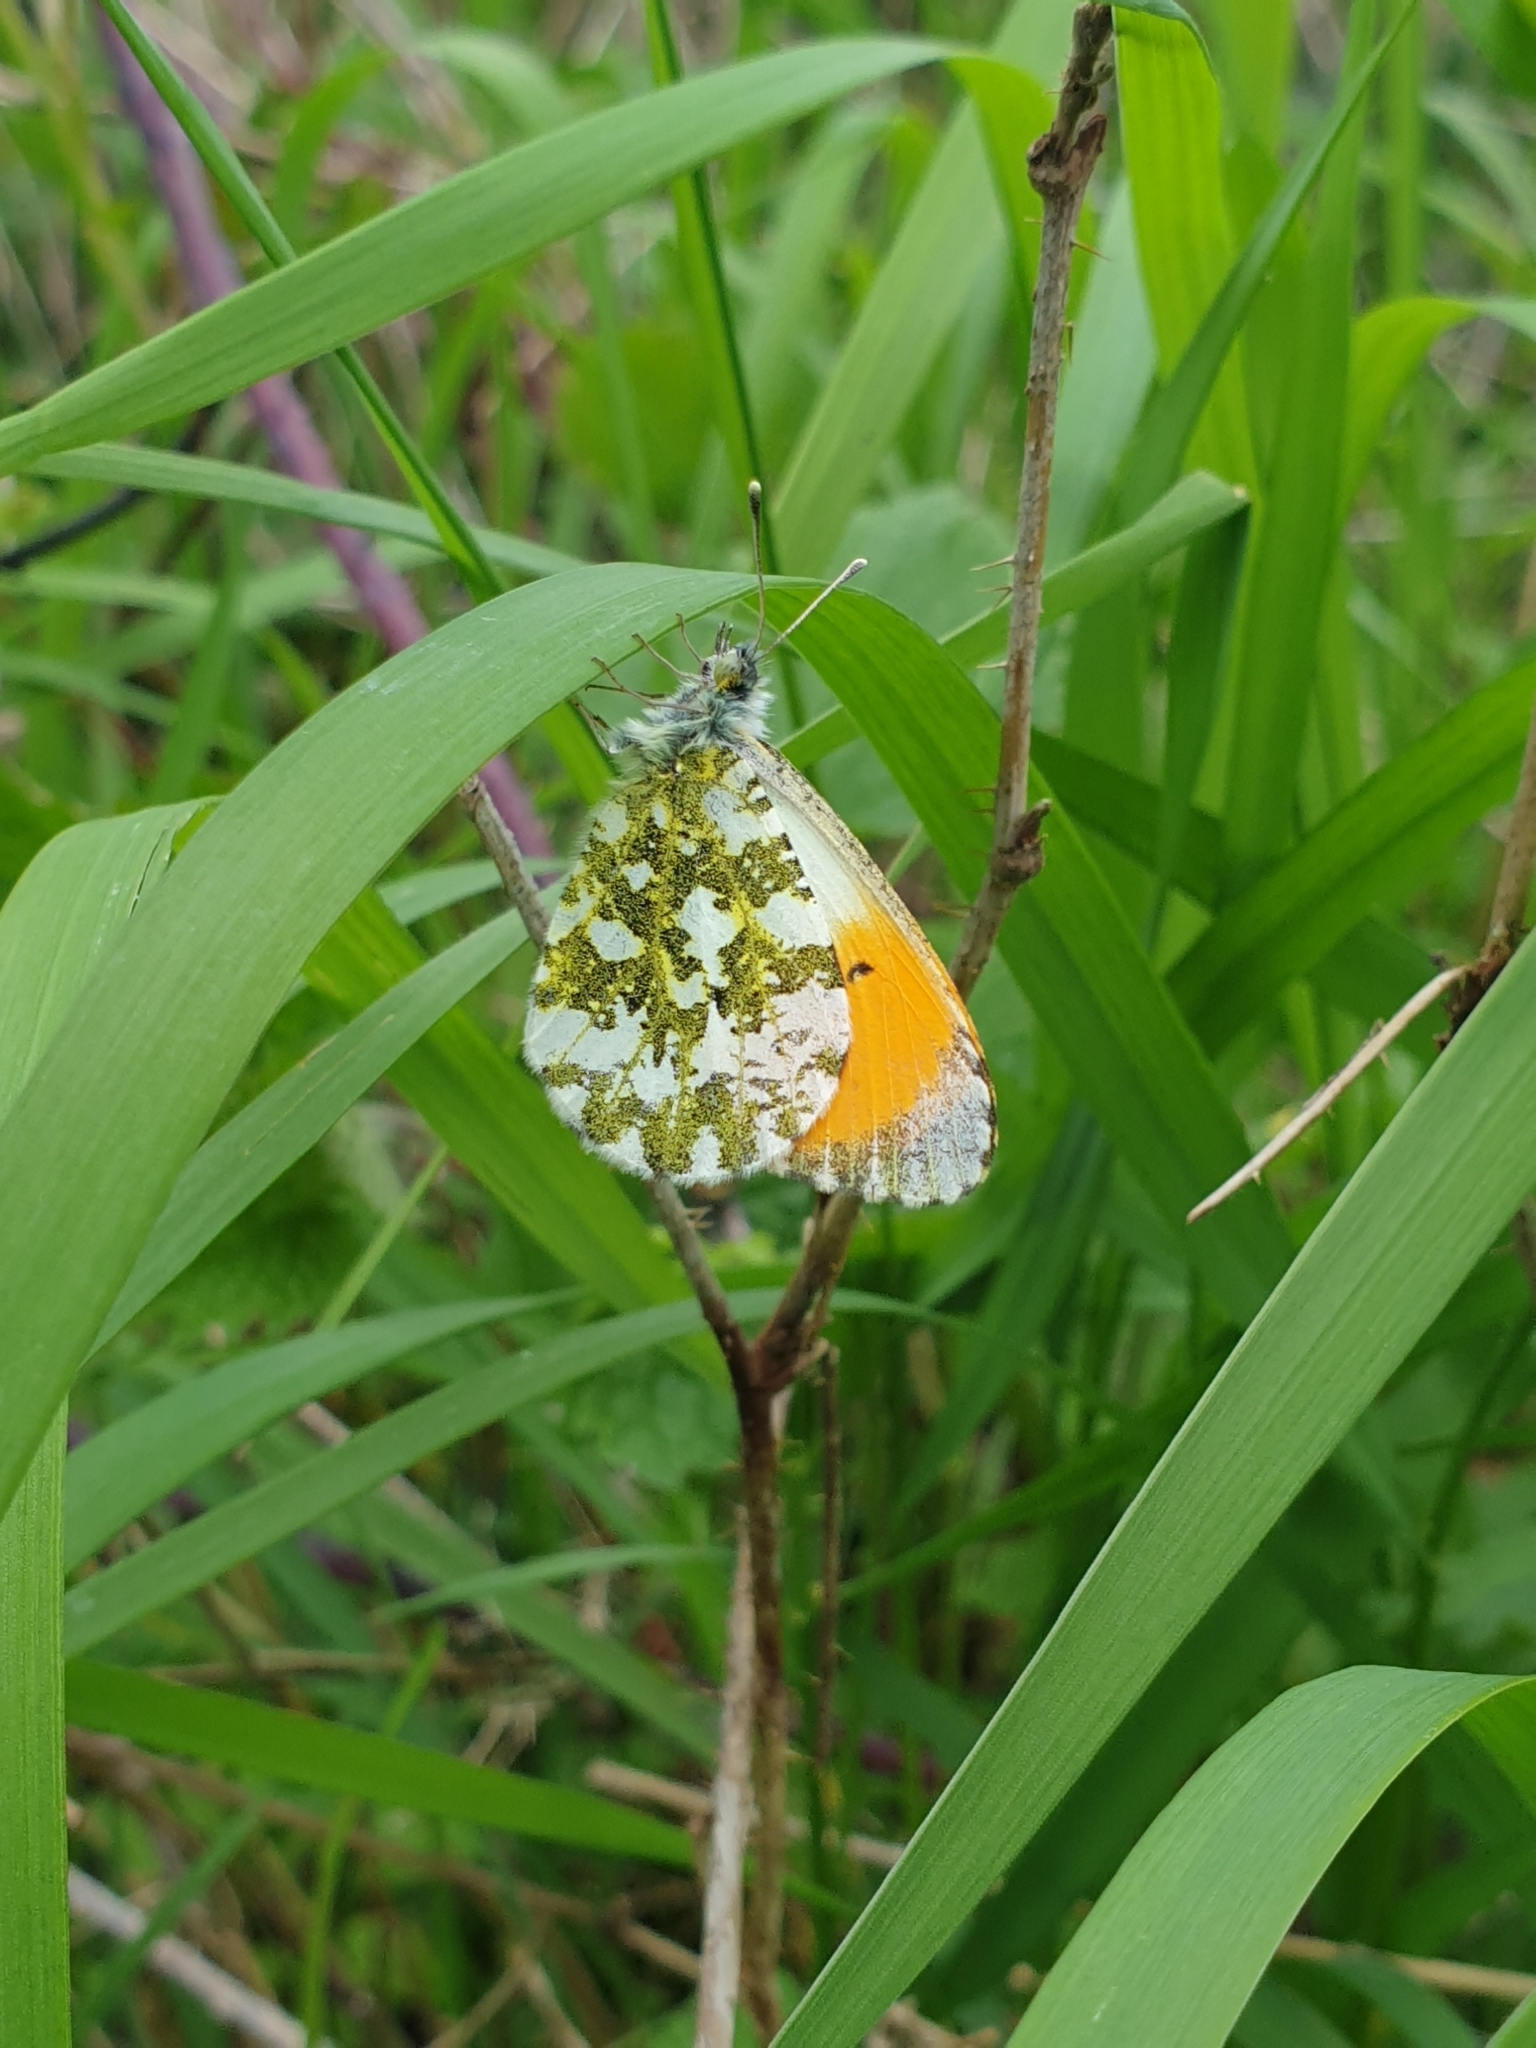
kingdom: Animalia
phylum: Arthropoda
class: Insecta
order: Lepidoptera
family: Pieridae
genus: Anthocharis
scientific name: Anthocharis cardamines
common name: Orange-tip
